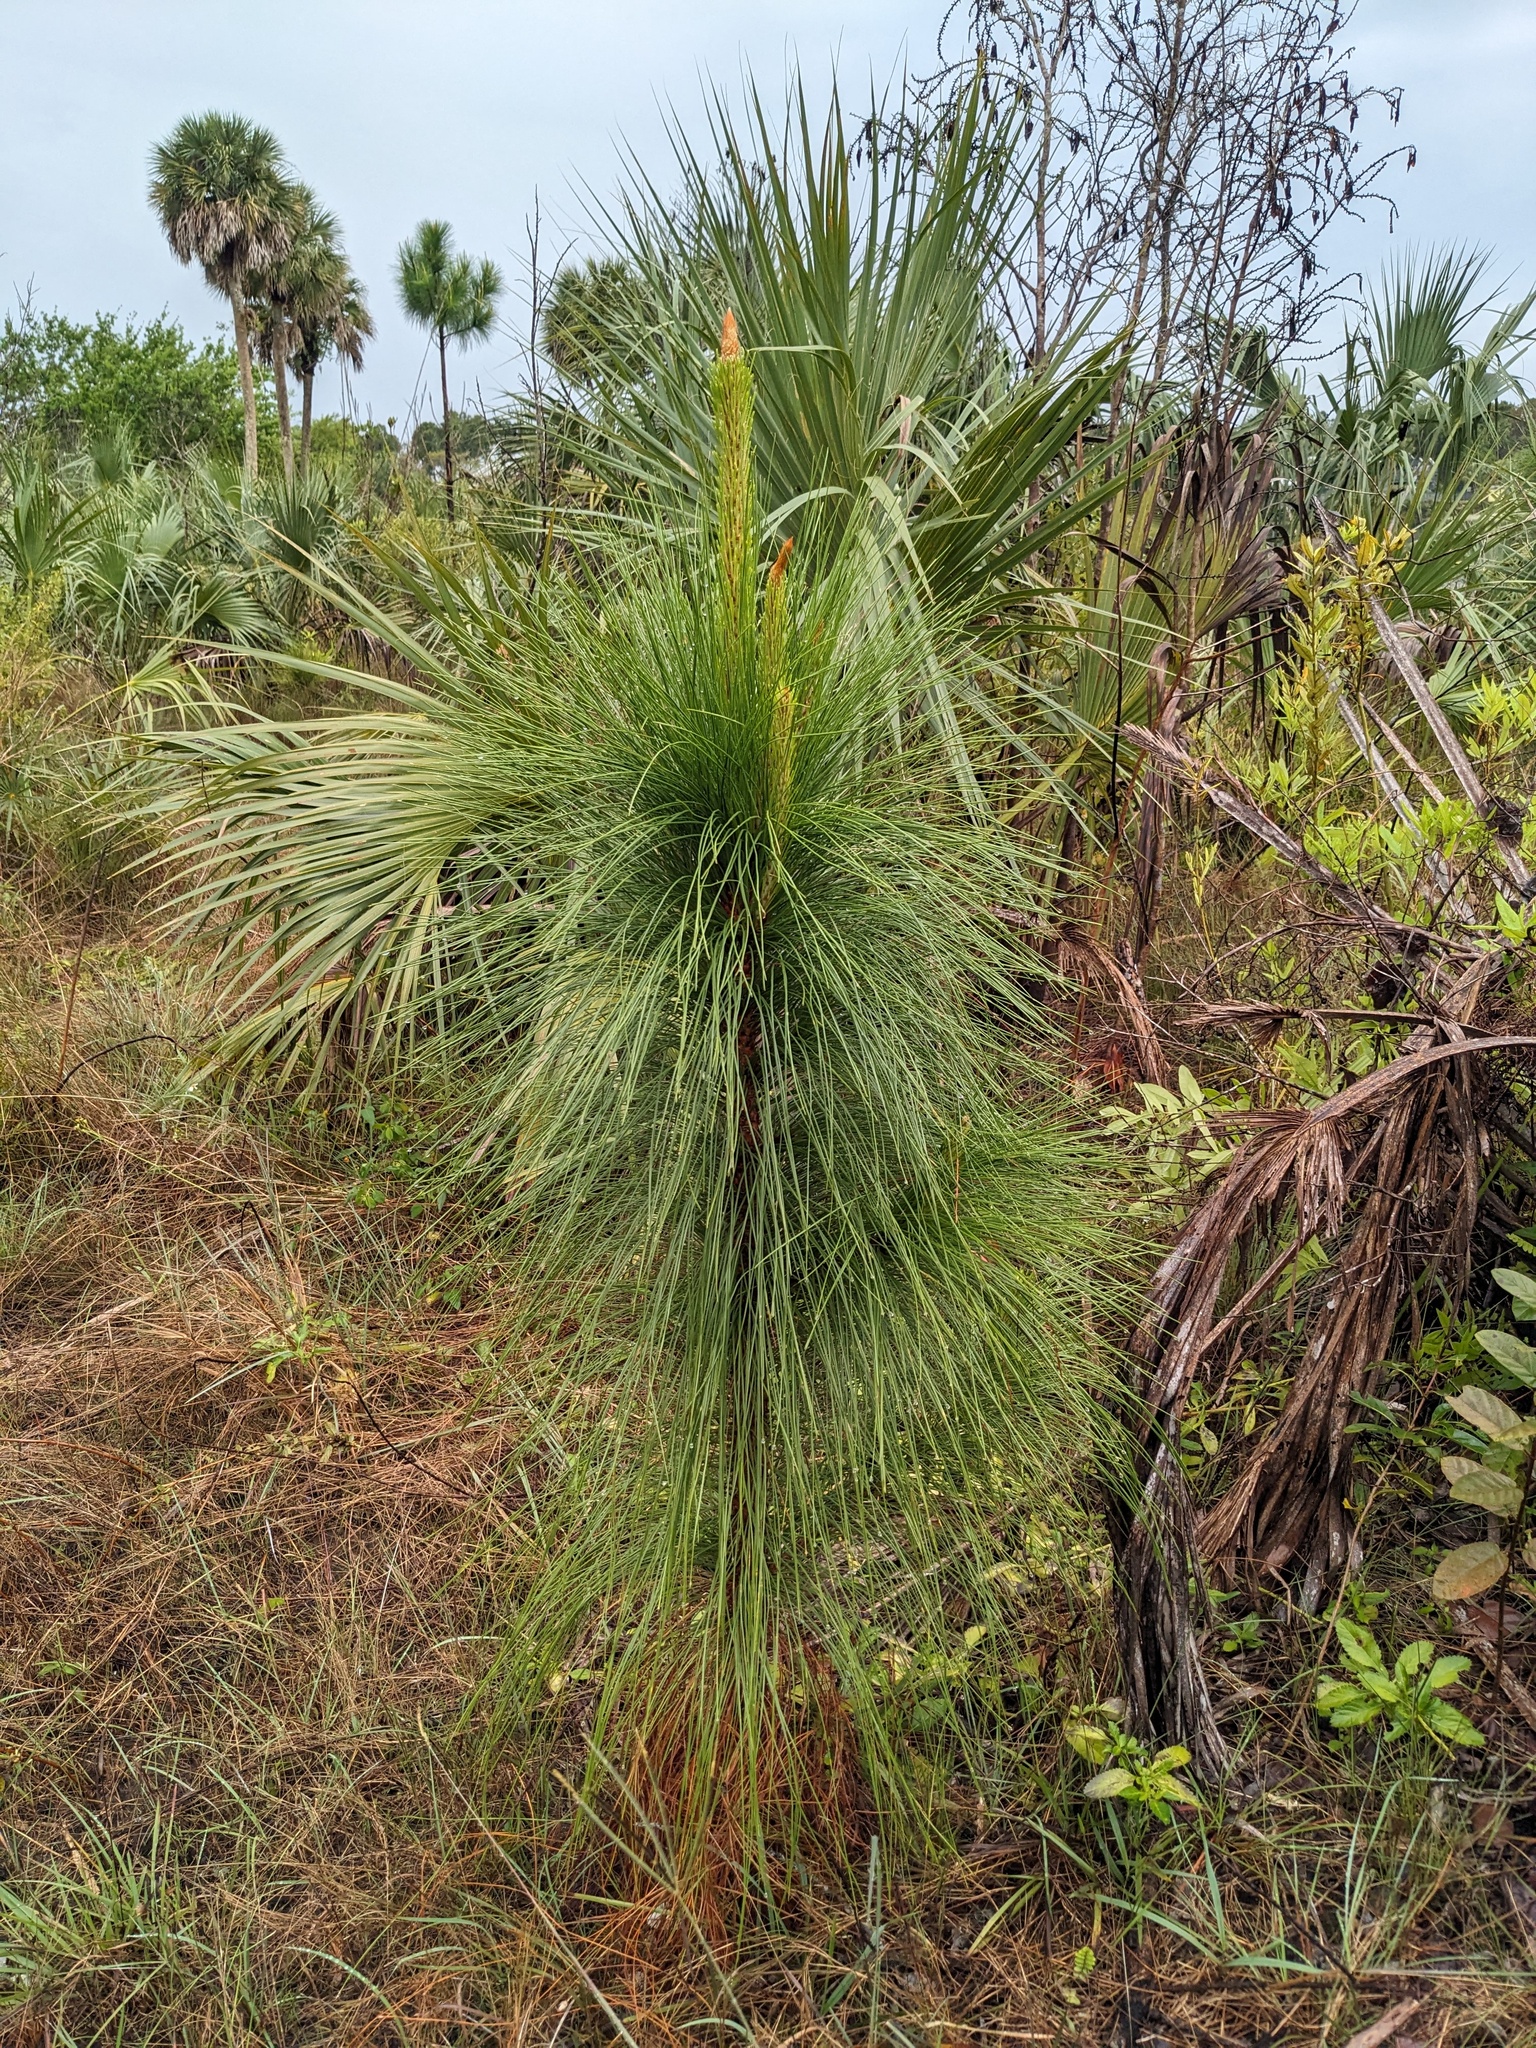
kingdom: Plantae
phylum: Tracheophyta
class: Pinopsida
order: Pinales
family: Pinaceae
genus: Pinus
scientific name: Pinus elliottii
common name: Slash pine
